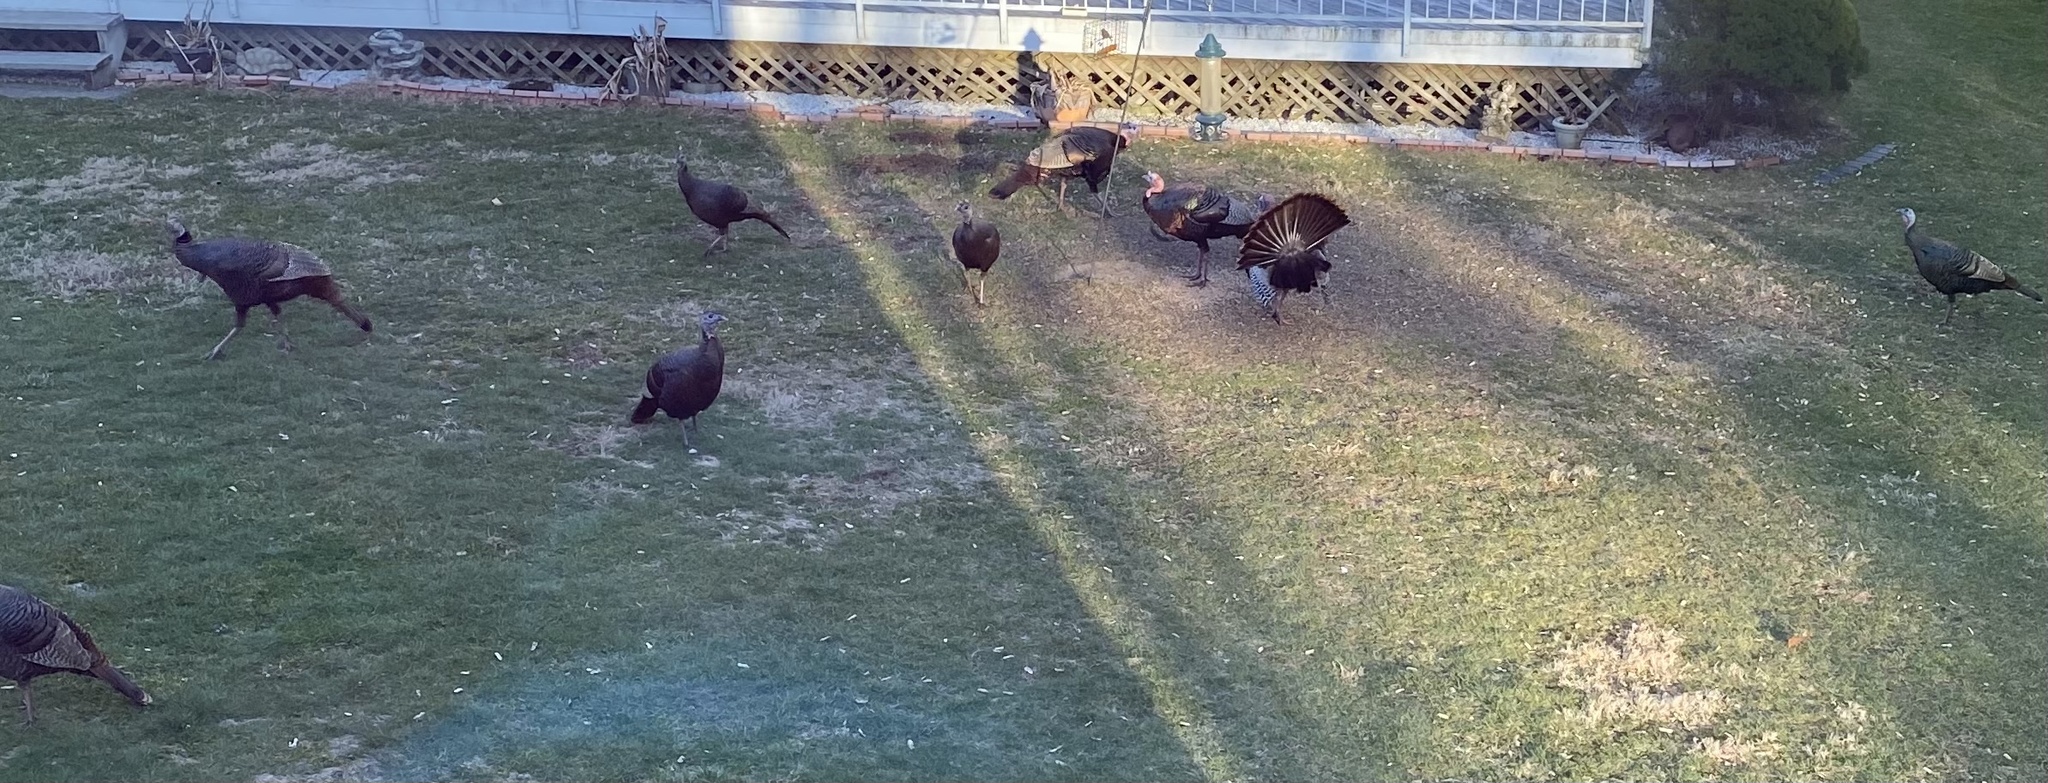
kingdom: Animalia
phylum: Chordata
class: Aves
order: Galliformes
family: Phasianidae
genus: Meleagris
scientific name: Meleagris gallopavo
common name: Wild turkey
